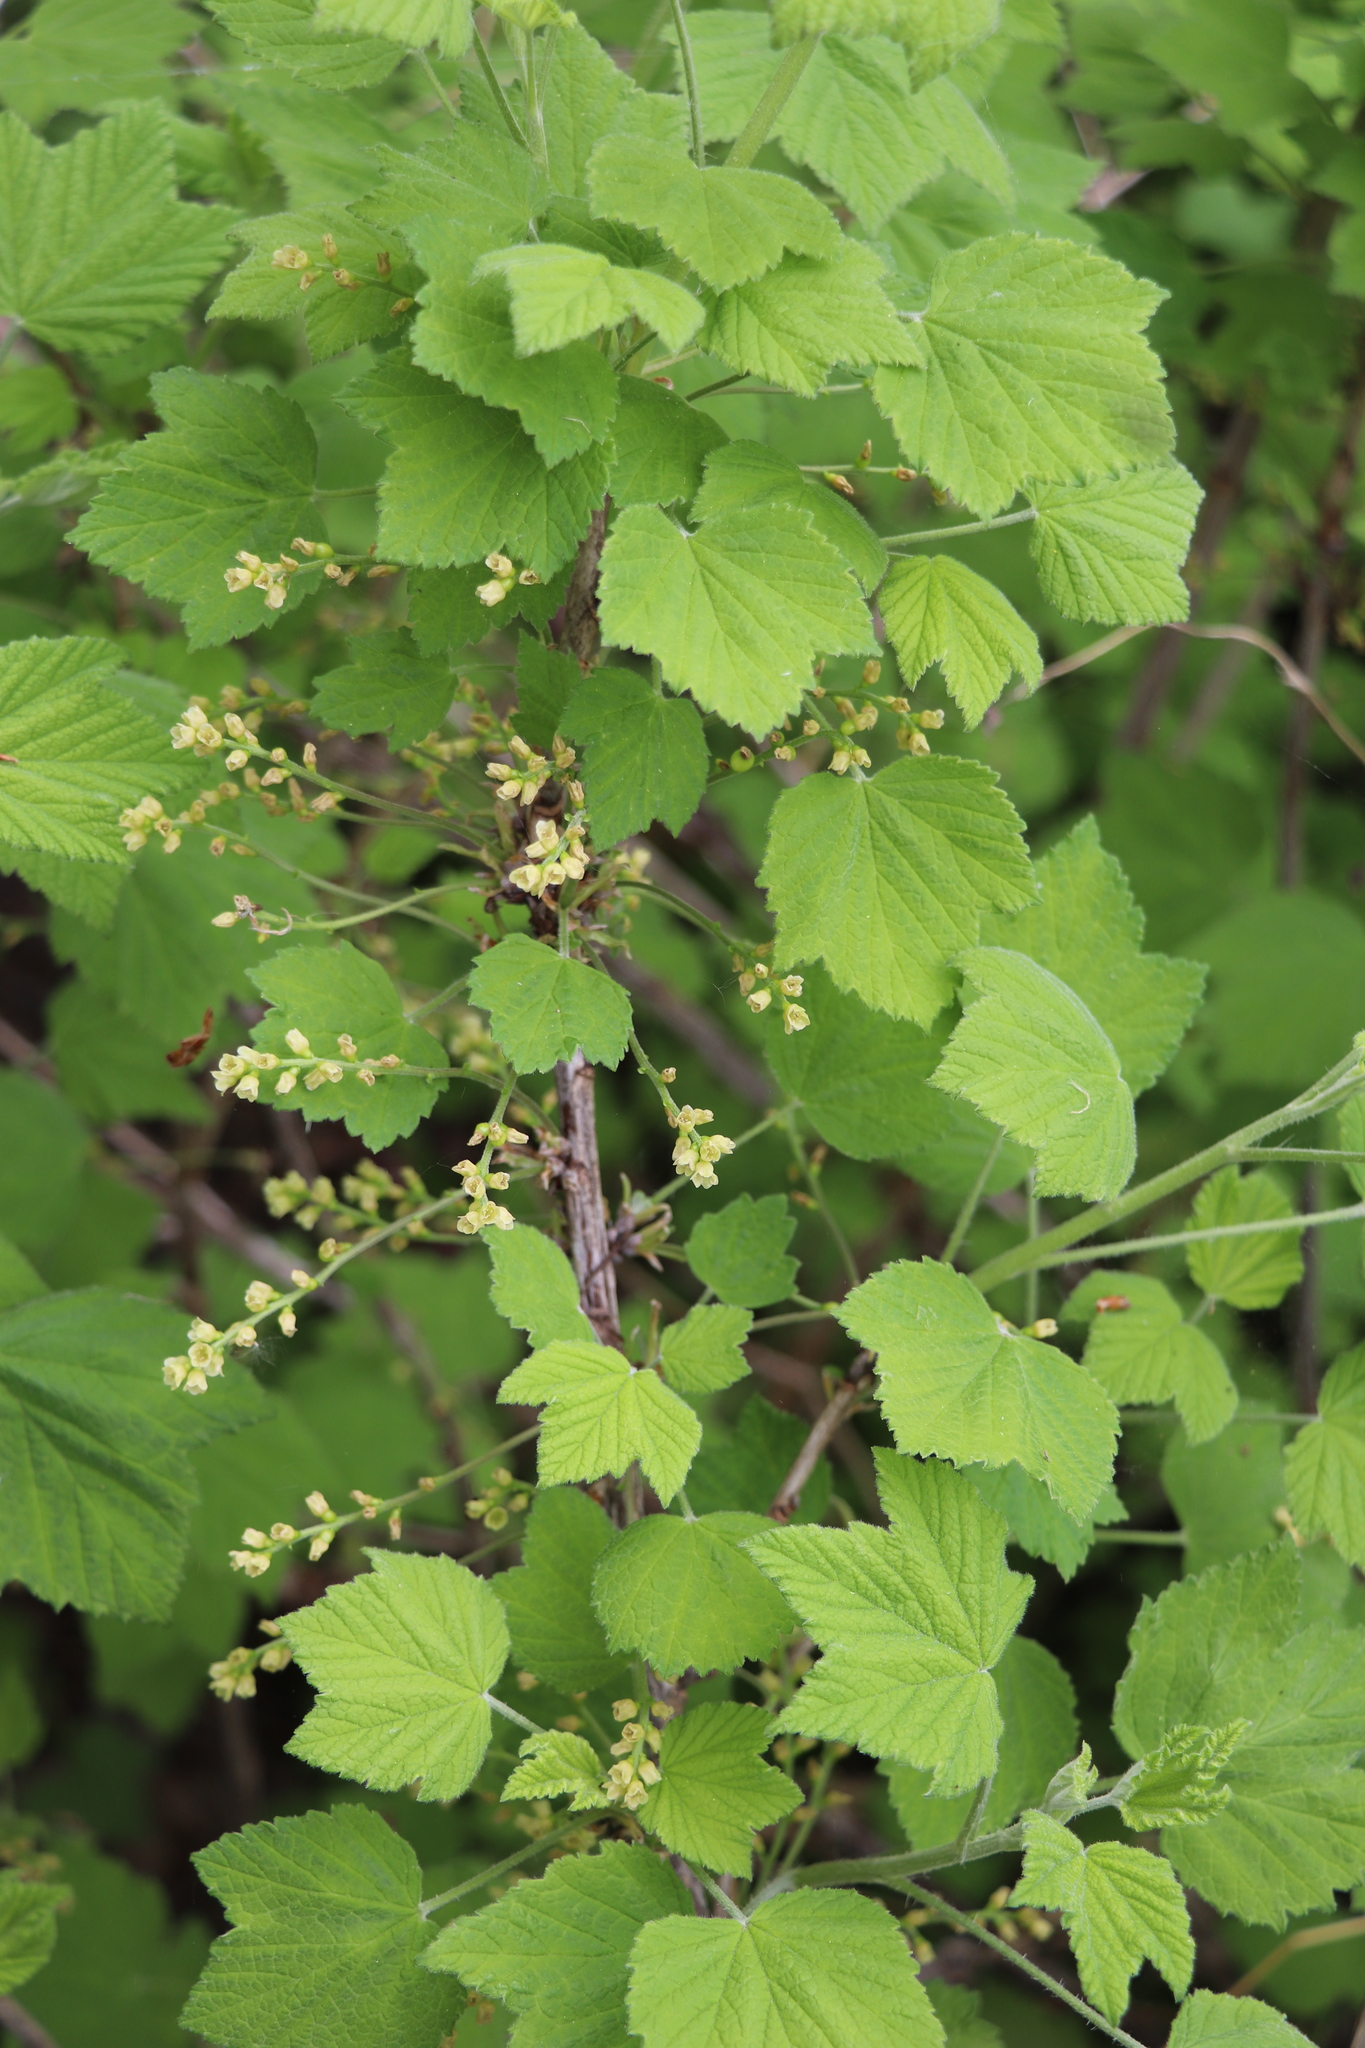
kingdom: Plantae
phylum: Tracheophyta
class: Magnoliopsida
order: Saxifragales
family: Grossulariaceae
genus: Ribes
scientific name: Ribes spicatum
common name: Downy currant
